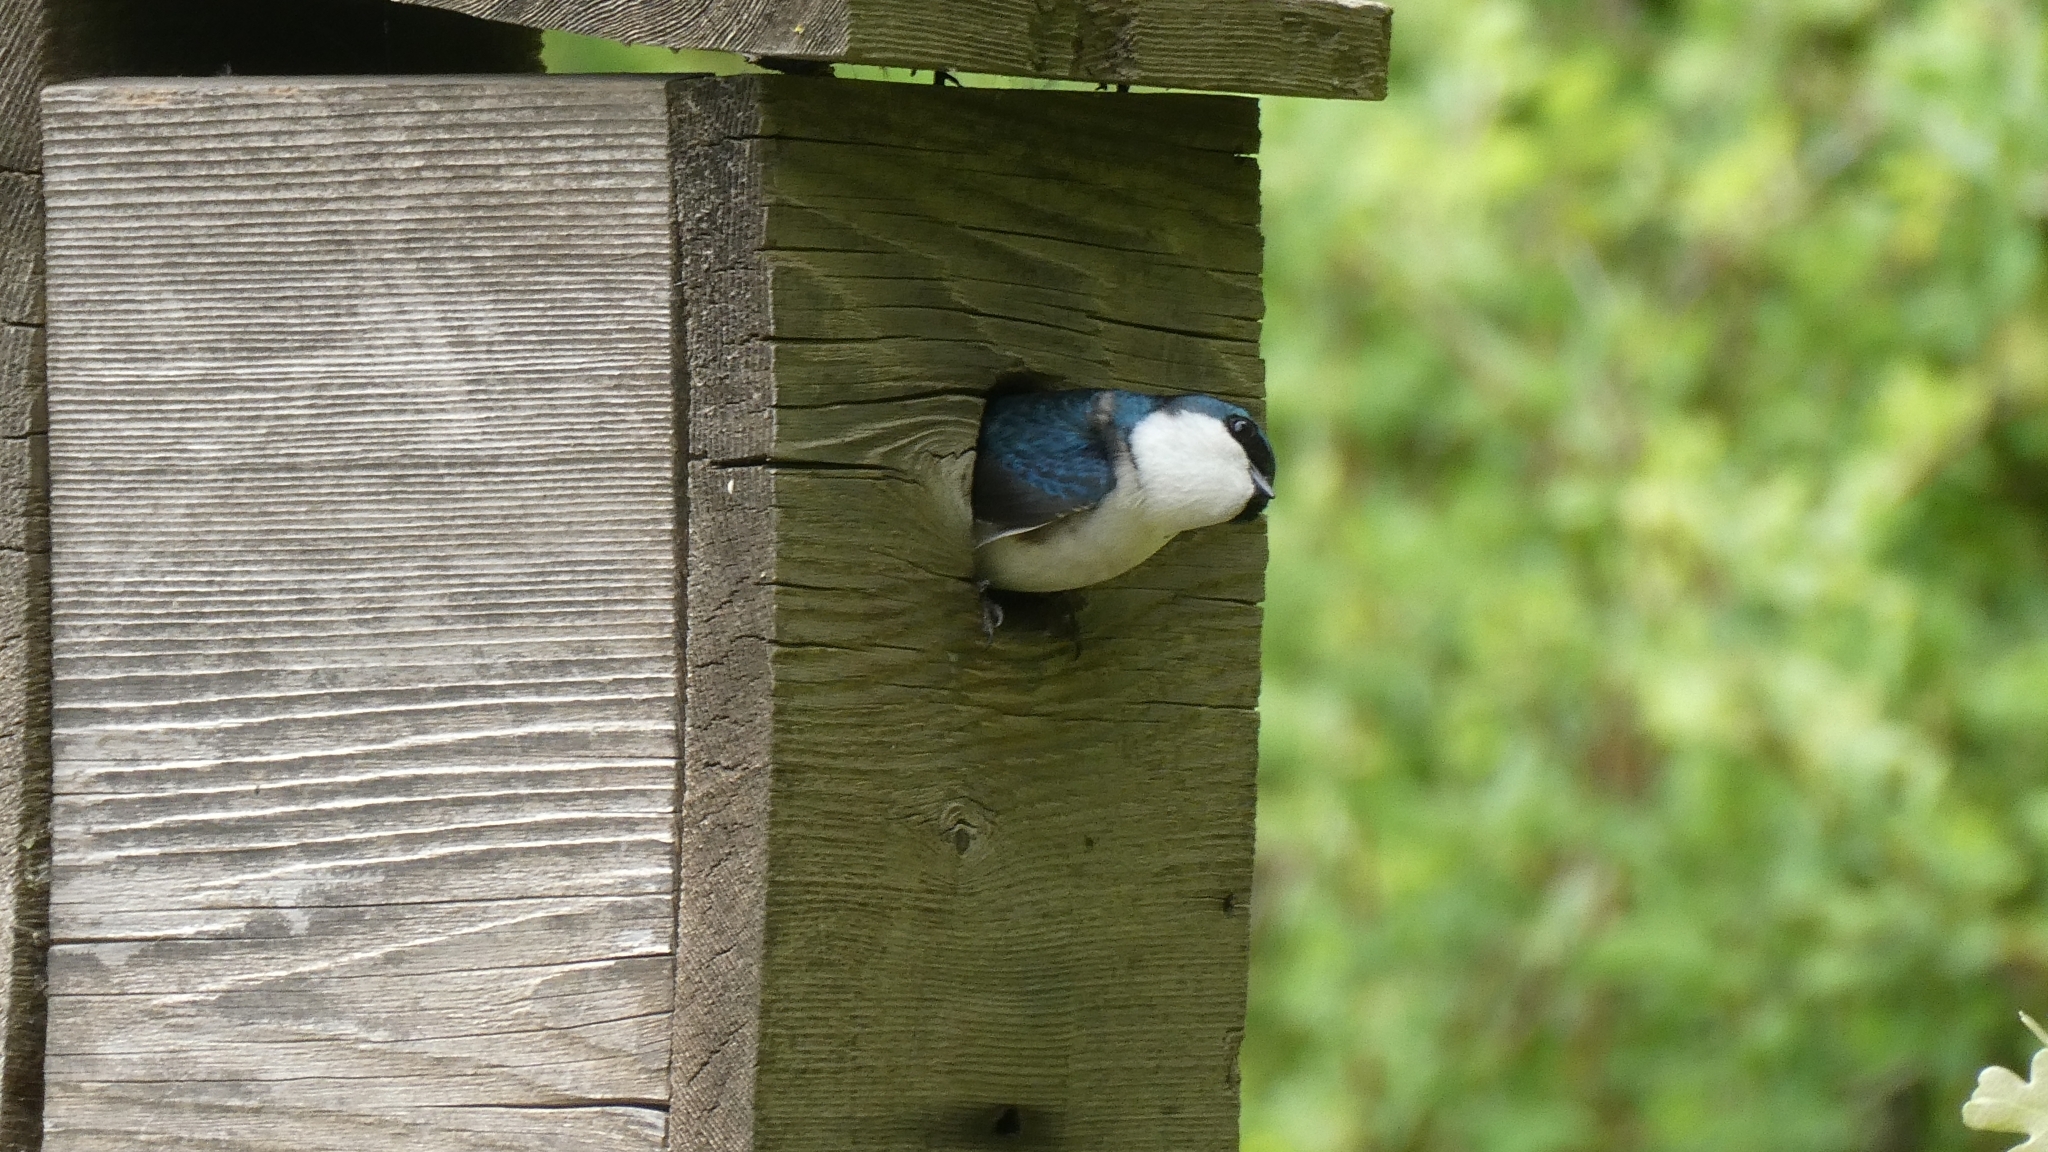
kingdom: Animalia
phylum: Chordata
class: Aves
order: Passeriformes
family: Hirundinidae
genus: Tachycineta
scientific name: Tachycineta bicolor
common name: Tree swallow
